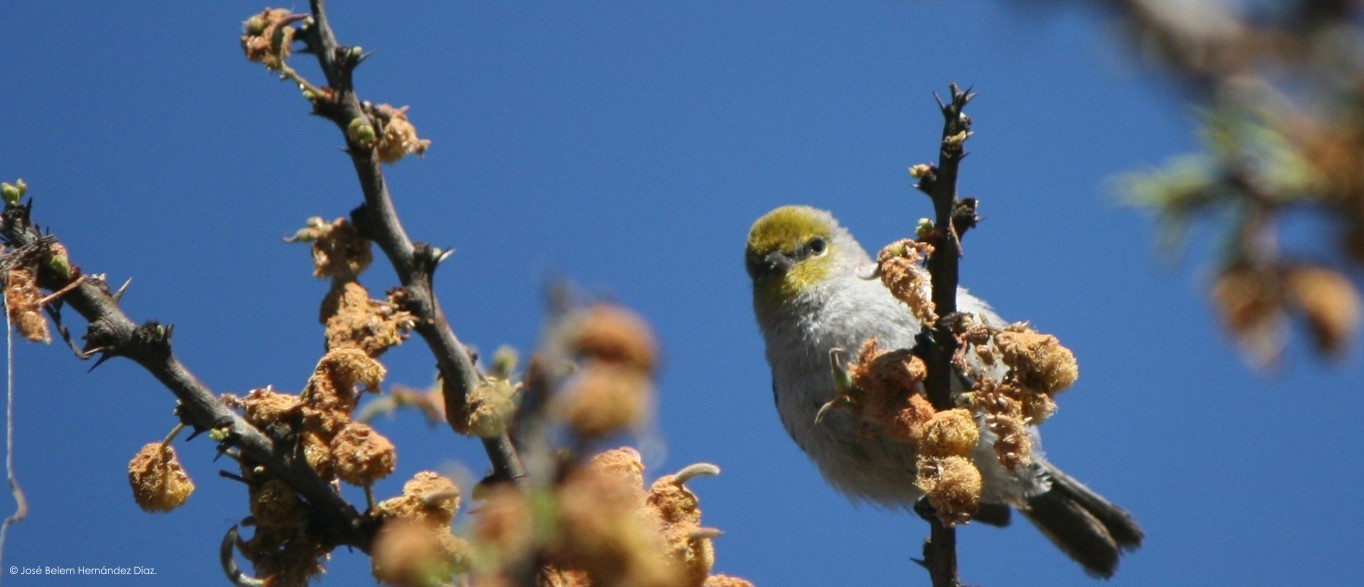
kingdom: Animalia
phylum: Chordata
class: Aves
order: Passeriformes
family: Remizidae
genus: Auriparus
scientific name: Auriparus flaviceps
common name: Verdin
